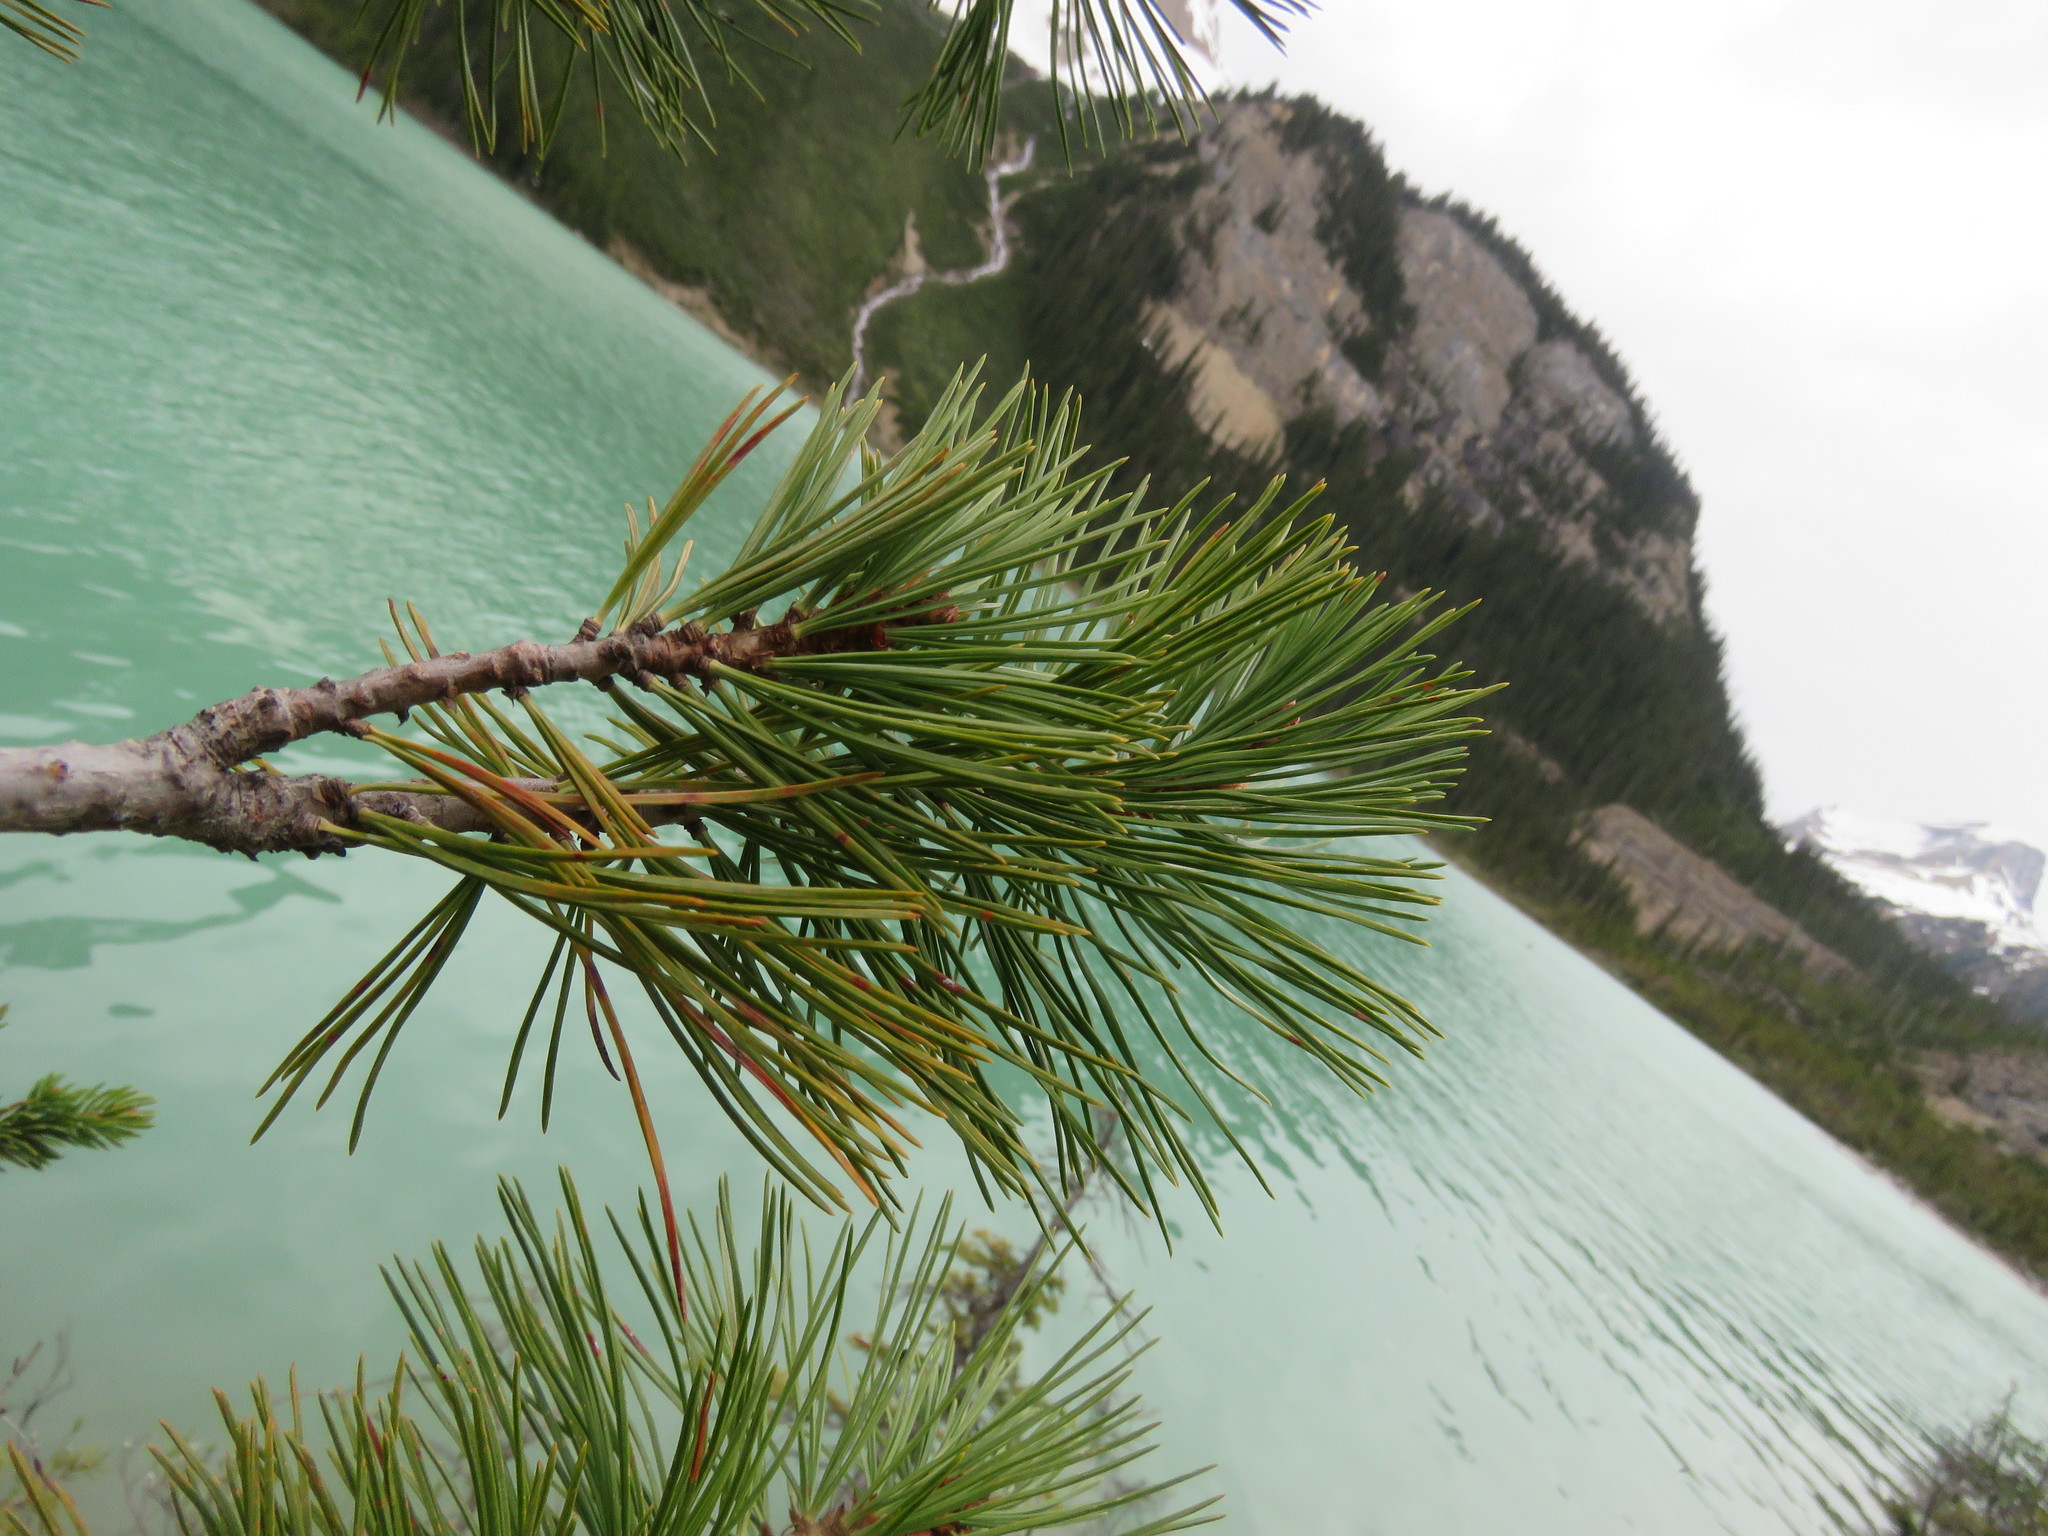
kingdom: Plantae
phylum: Tracheophyta
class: Pinopsida
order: Pinales
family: Pinaceae
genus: Pinus
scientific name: Pinus albicaulis
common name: Whitebark pine
